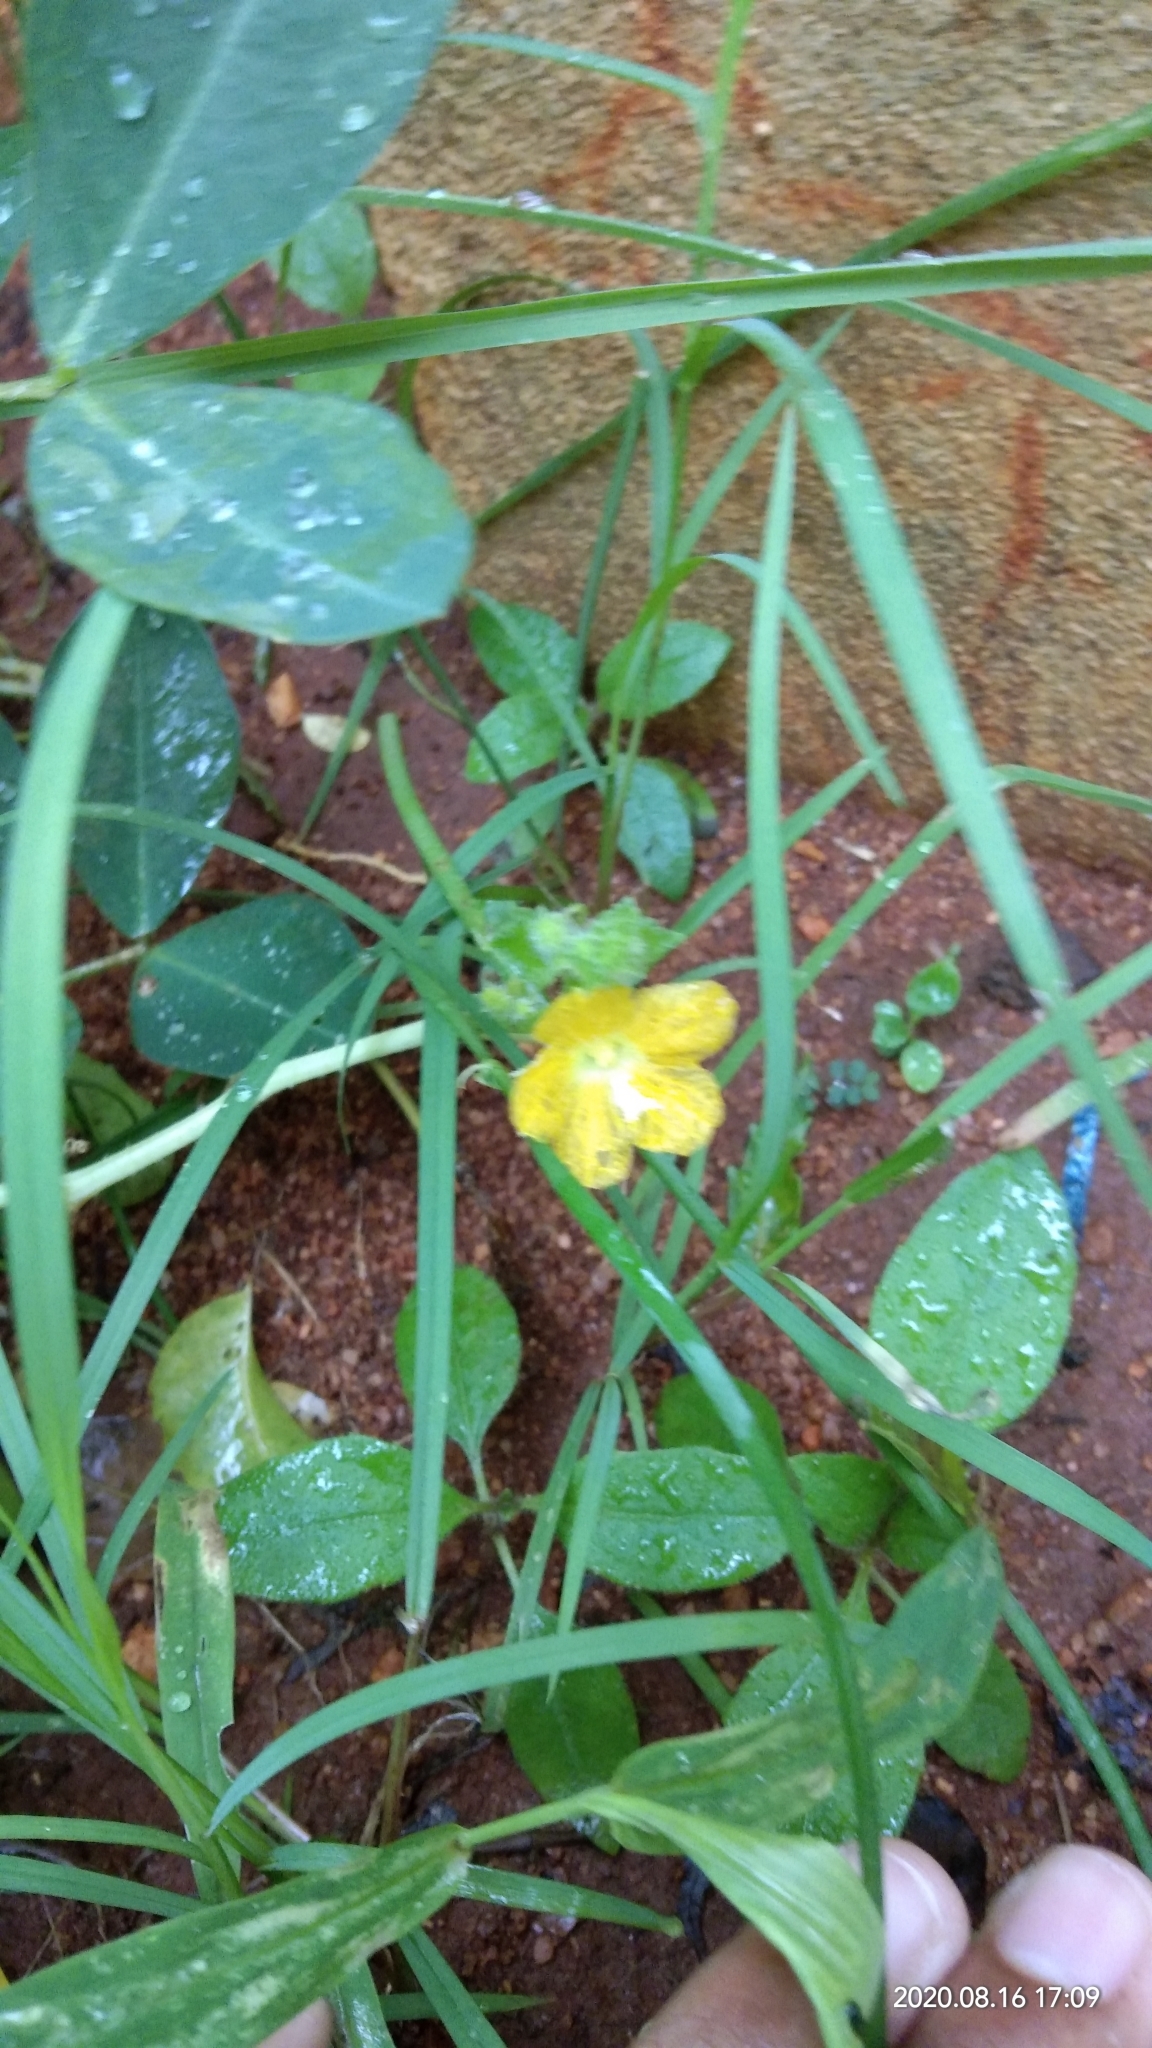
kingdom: Plantae
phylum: Tracheophyta
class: Magnoliopsida
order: Cucurbitales
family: Cucurbitaceae
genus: Cucumis
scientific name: Cucumis sativus
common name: Cucumber
